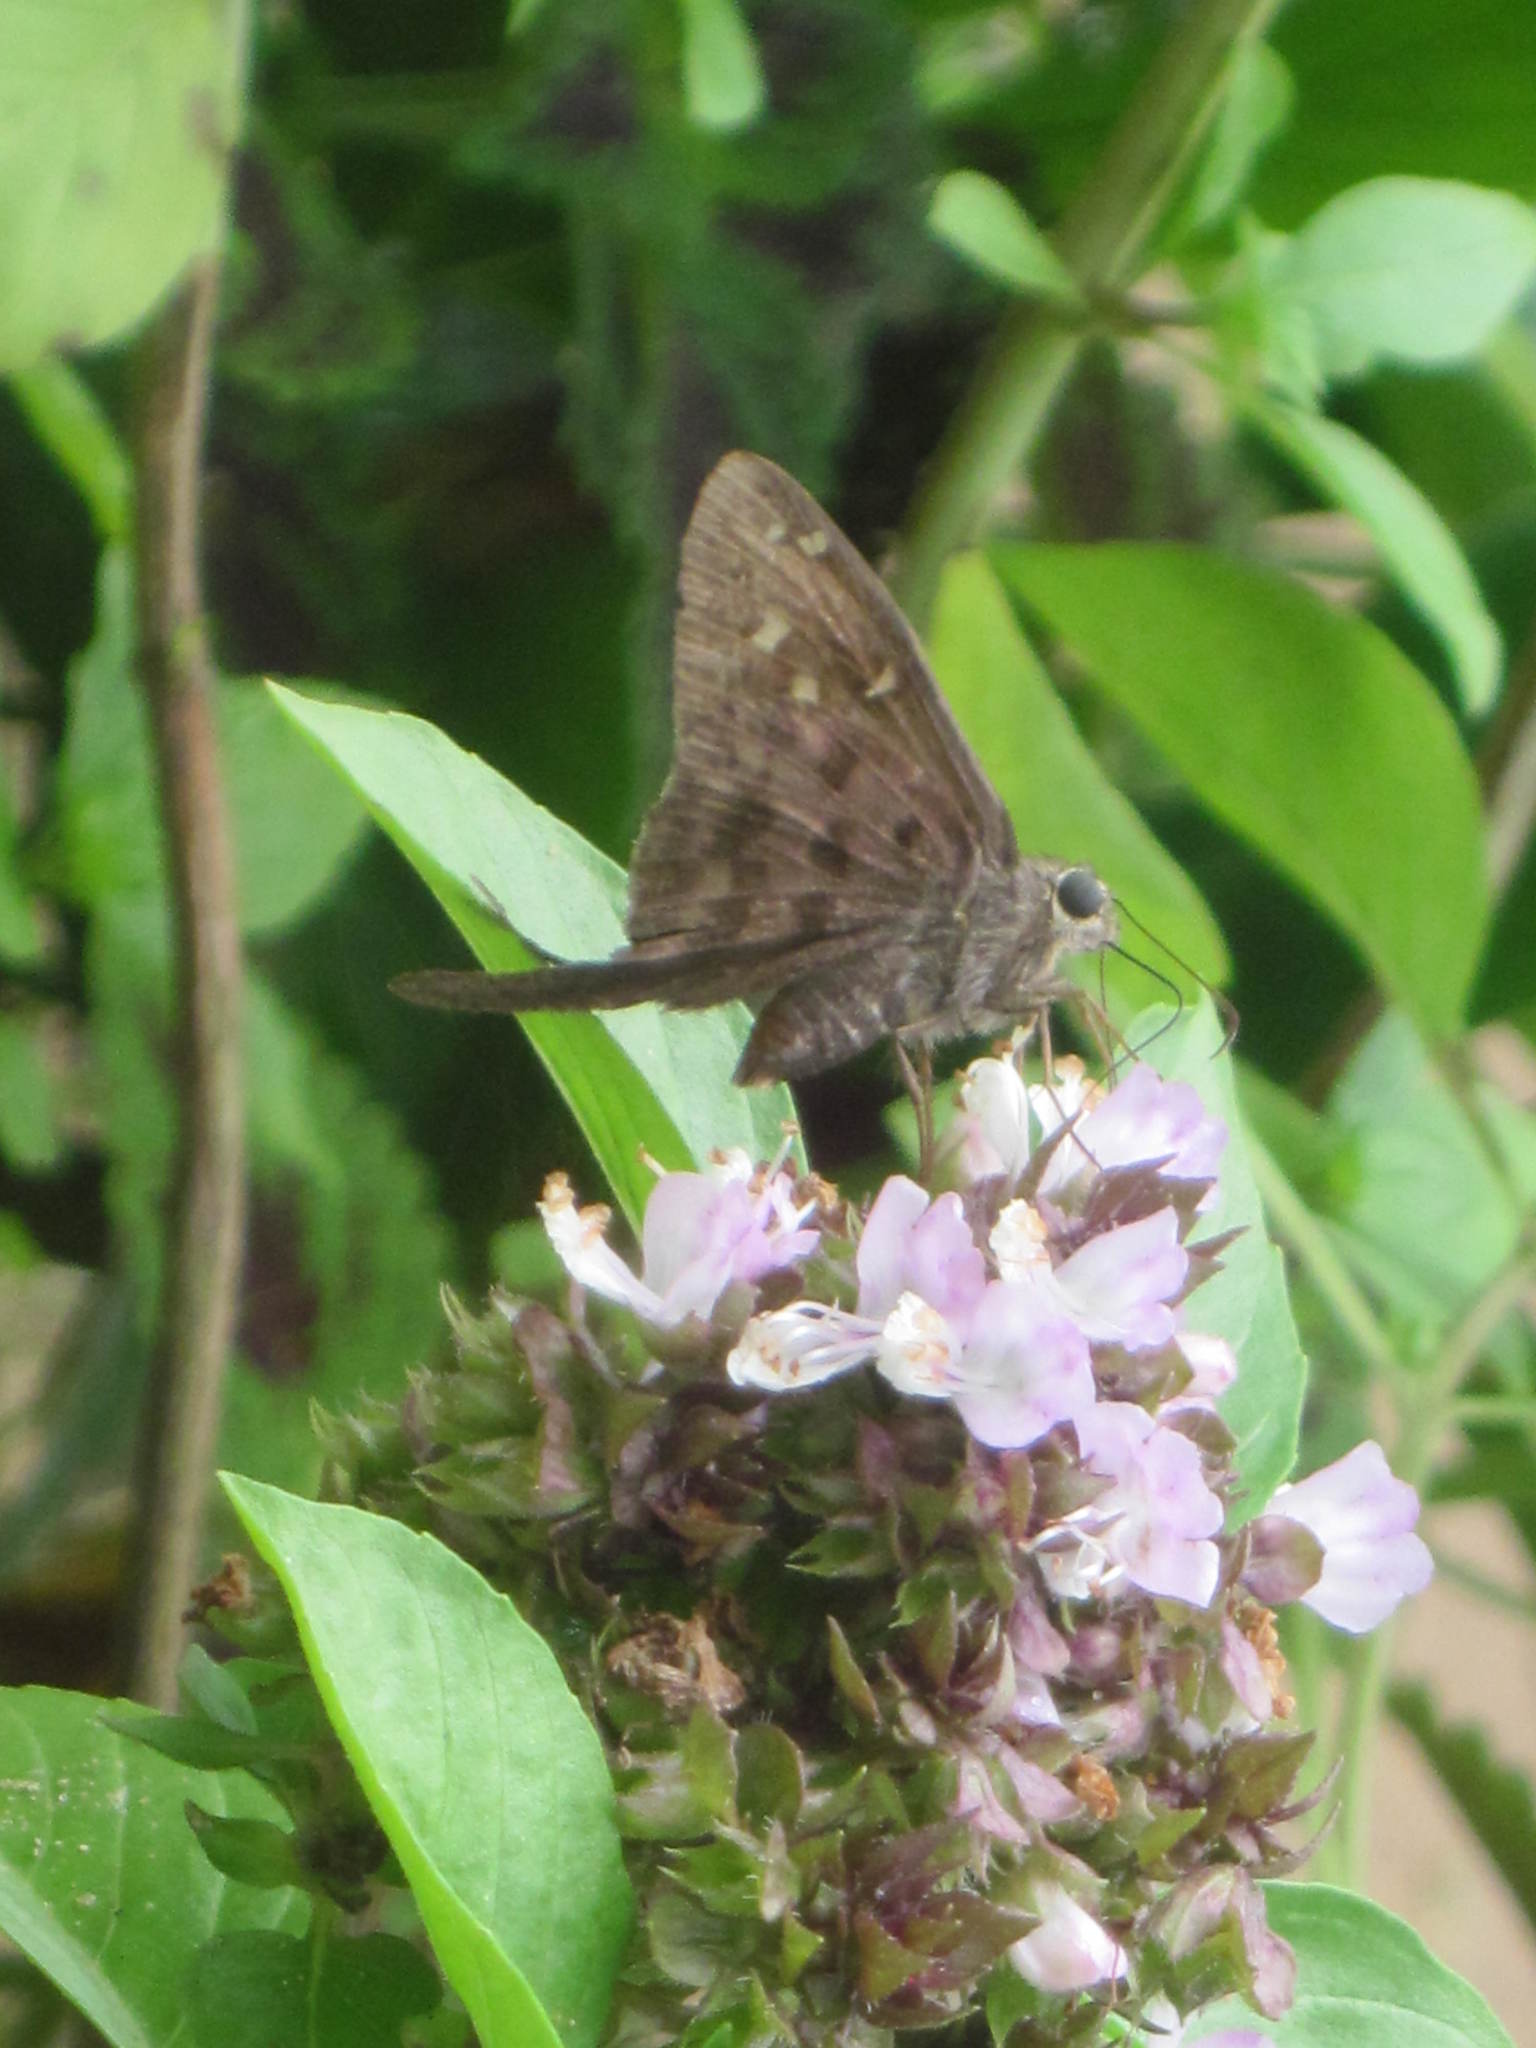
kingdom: Animalia
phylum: Arthropoda
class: Insecta
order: Lepidoptera
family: Hesperiidae
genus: Thorybes
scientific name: Thorybes
